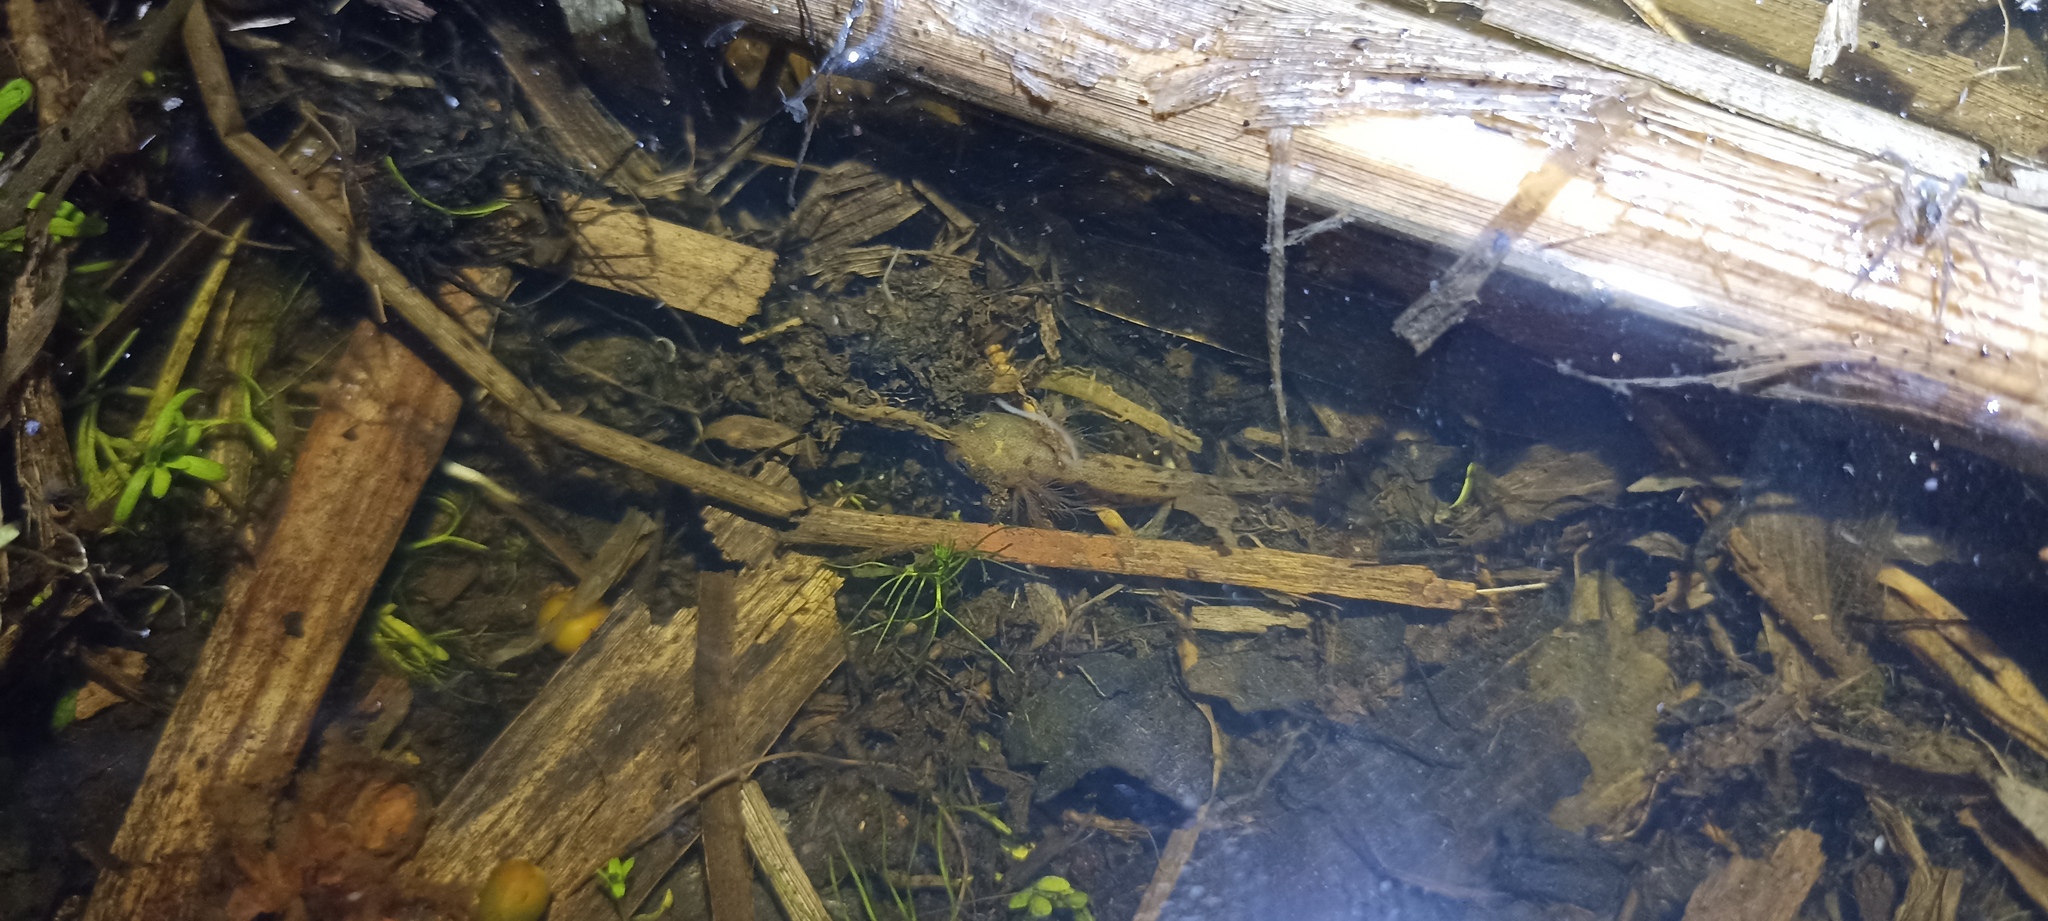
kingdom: Animalia
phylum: Chordata
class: Amphibia
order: Caudata
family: Salamandridae
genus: Salamandra
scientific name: Salamandra salamandra
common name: Fire salamander
